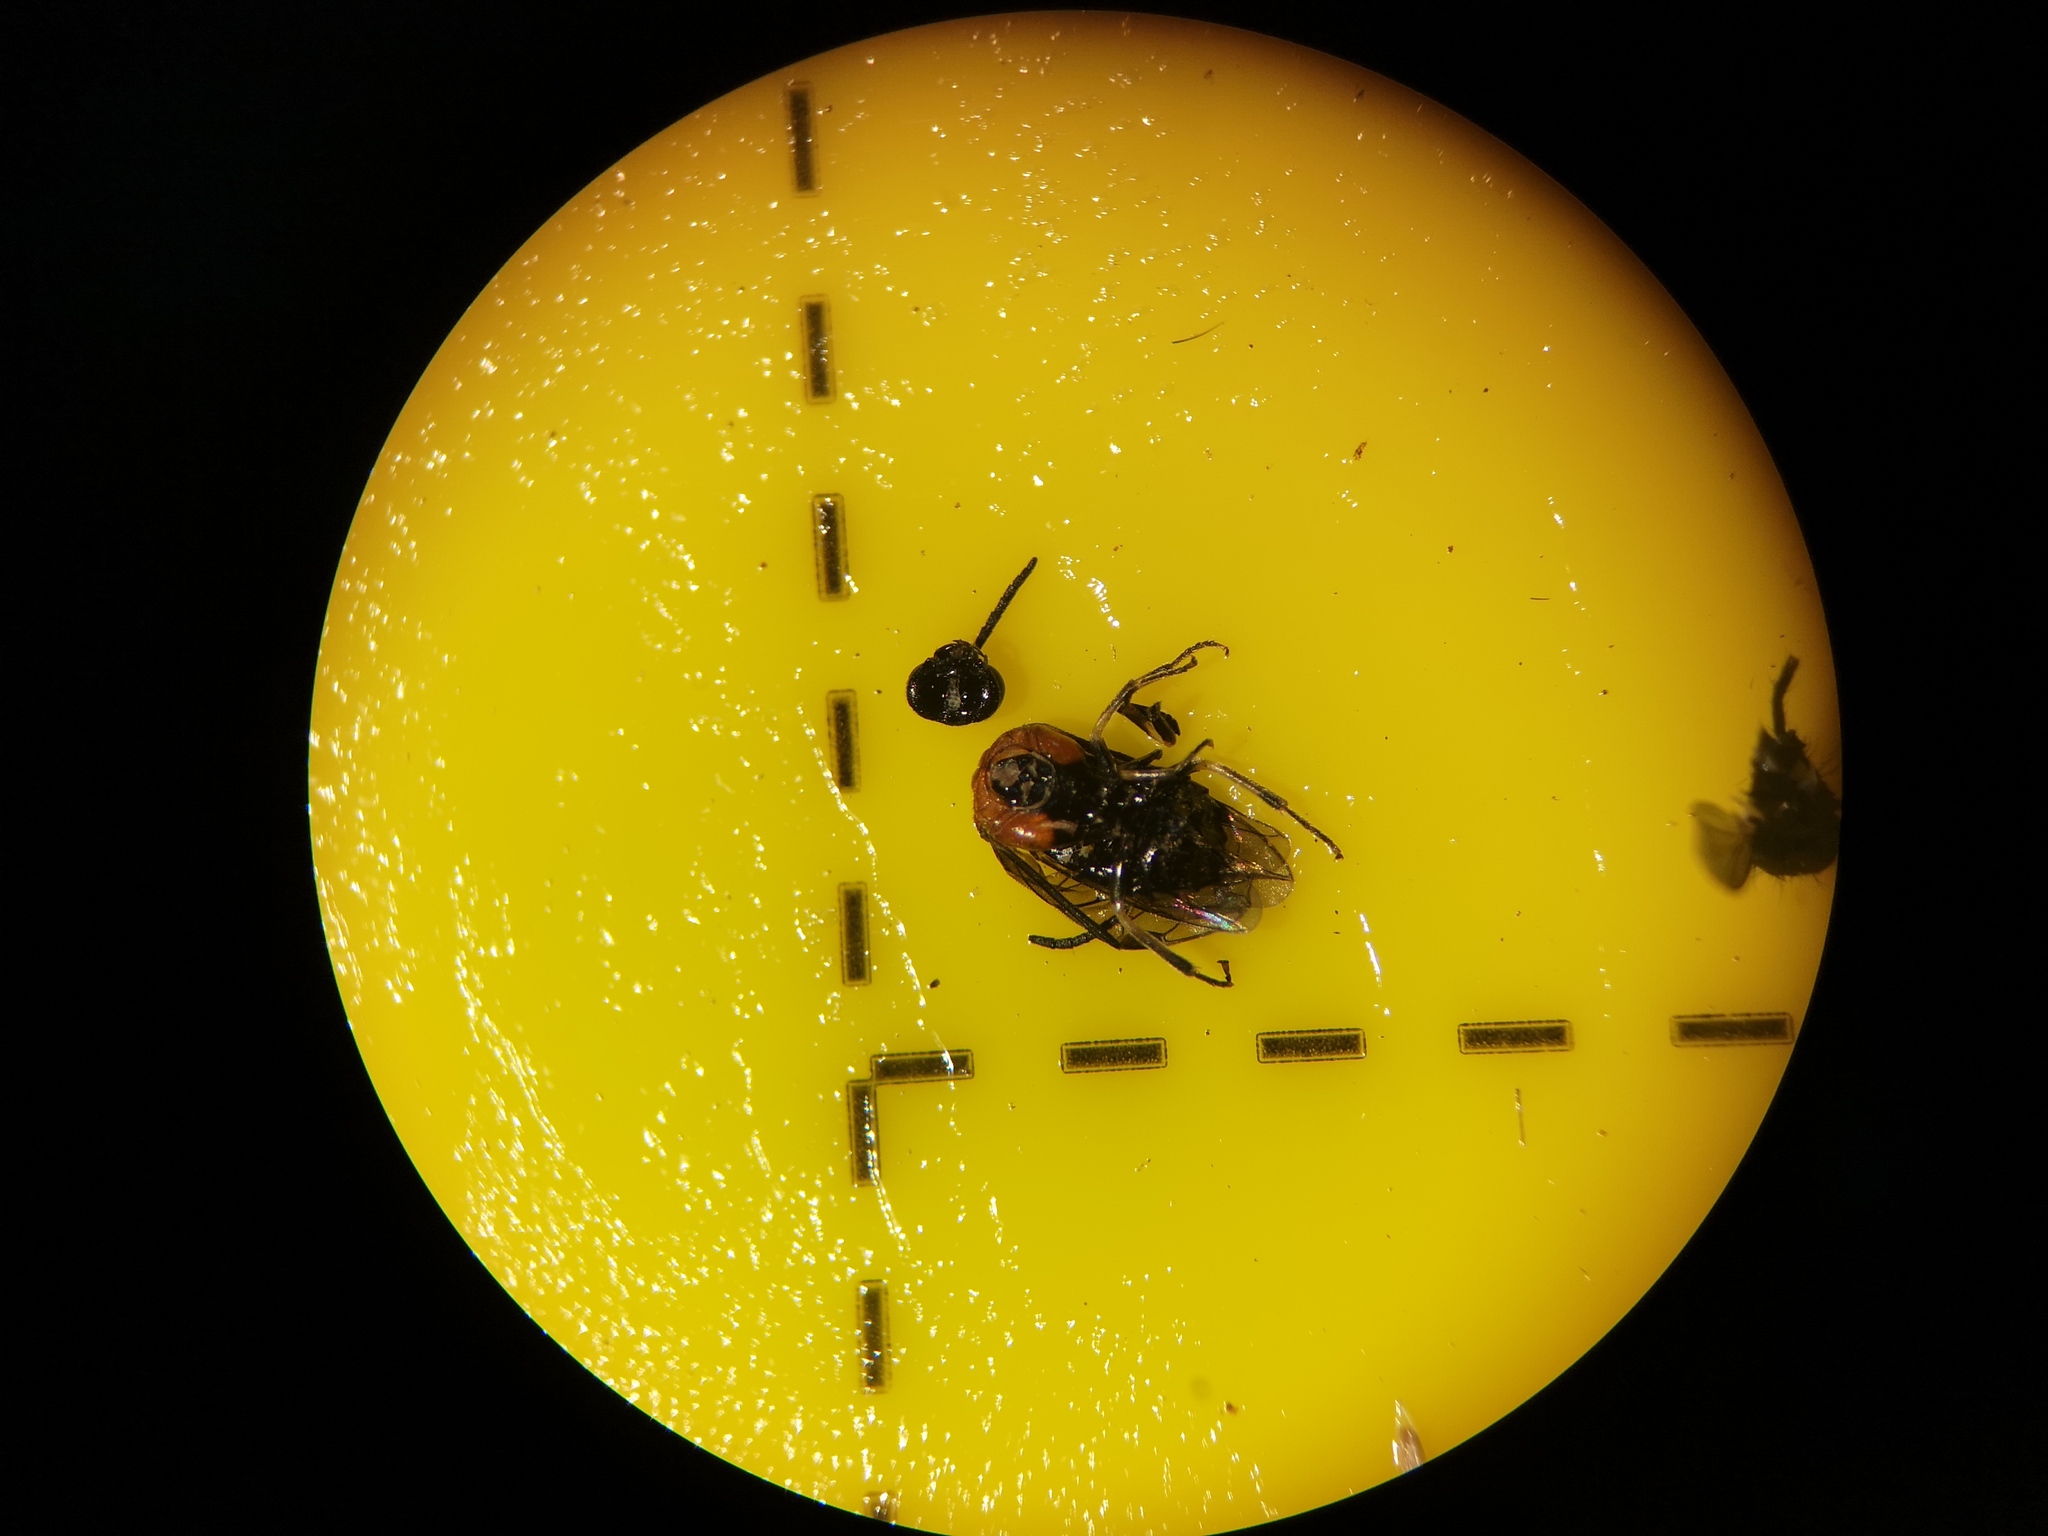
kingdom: Animalia
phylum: Arthropoda
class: Insecta
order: Hymenoptera
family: Tenthredinidae
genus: Eutomostethus
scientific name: Eutomostethus ephippium
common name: Tenthredid wasp
